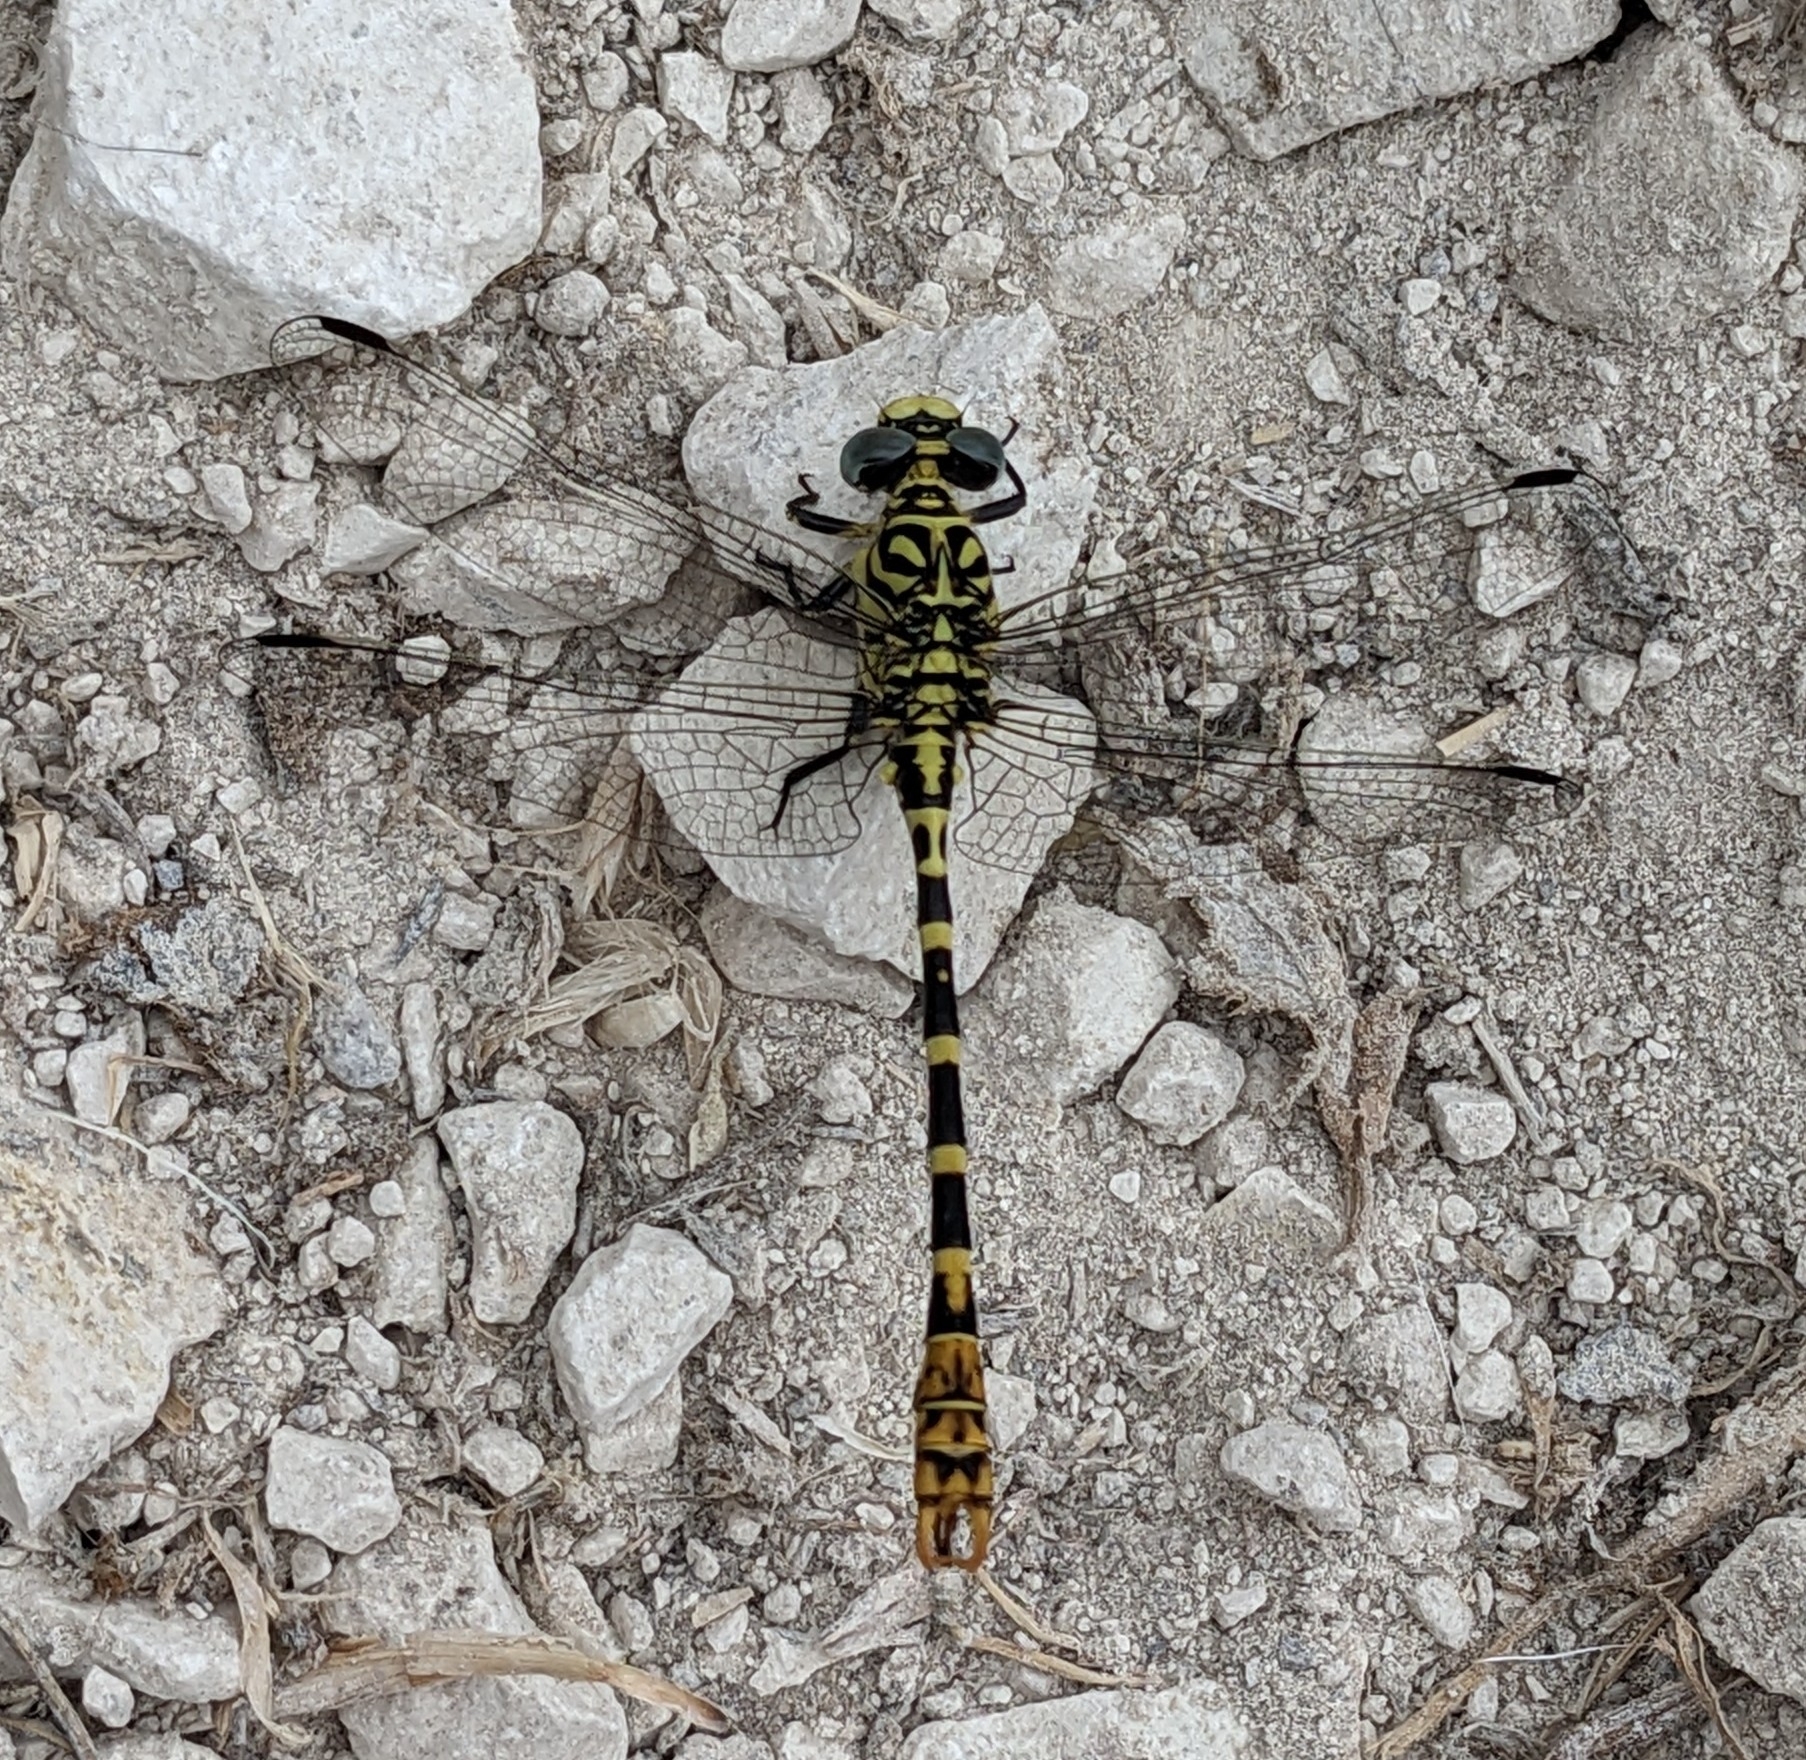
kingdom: Animalia
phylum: Arthropoda
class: Insecta
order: Odonata
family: Gomphidae
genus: Onychogomphus
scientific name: Onychogomphus forcipatus
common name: Small pincertail
